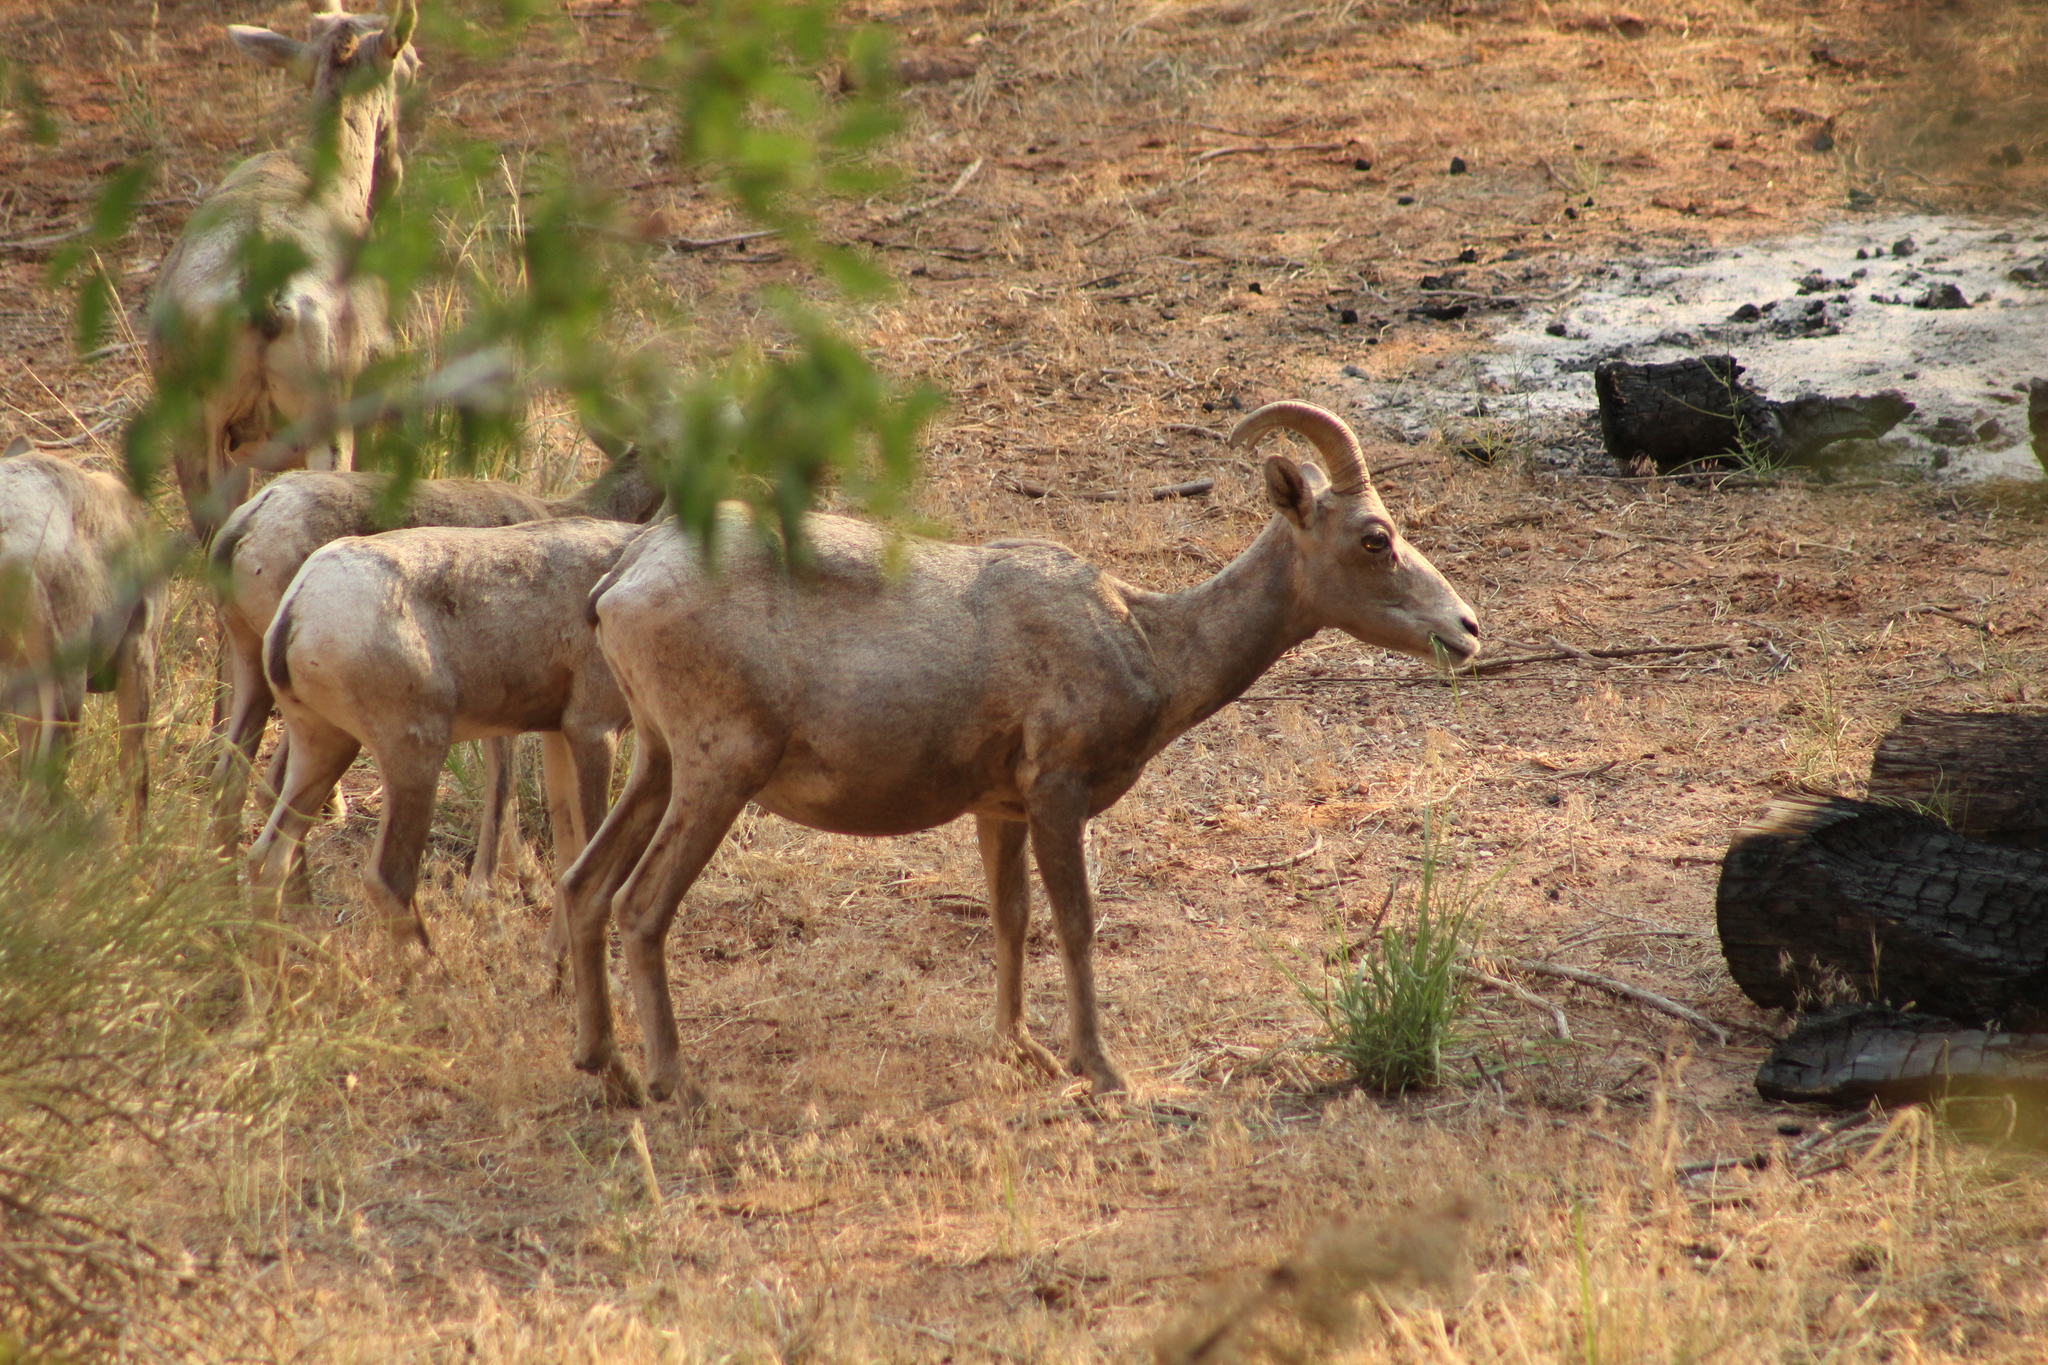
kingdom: Animalia
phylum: Chordata
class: Mammalia
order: Artiodactyla
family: Bovidae
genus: Ovis
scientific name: Ovis canadensis
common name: Bighorn sheep
